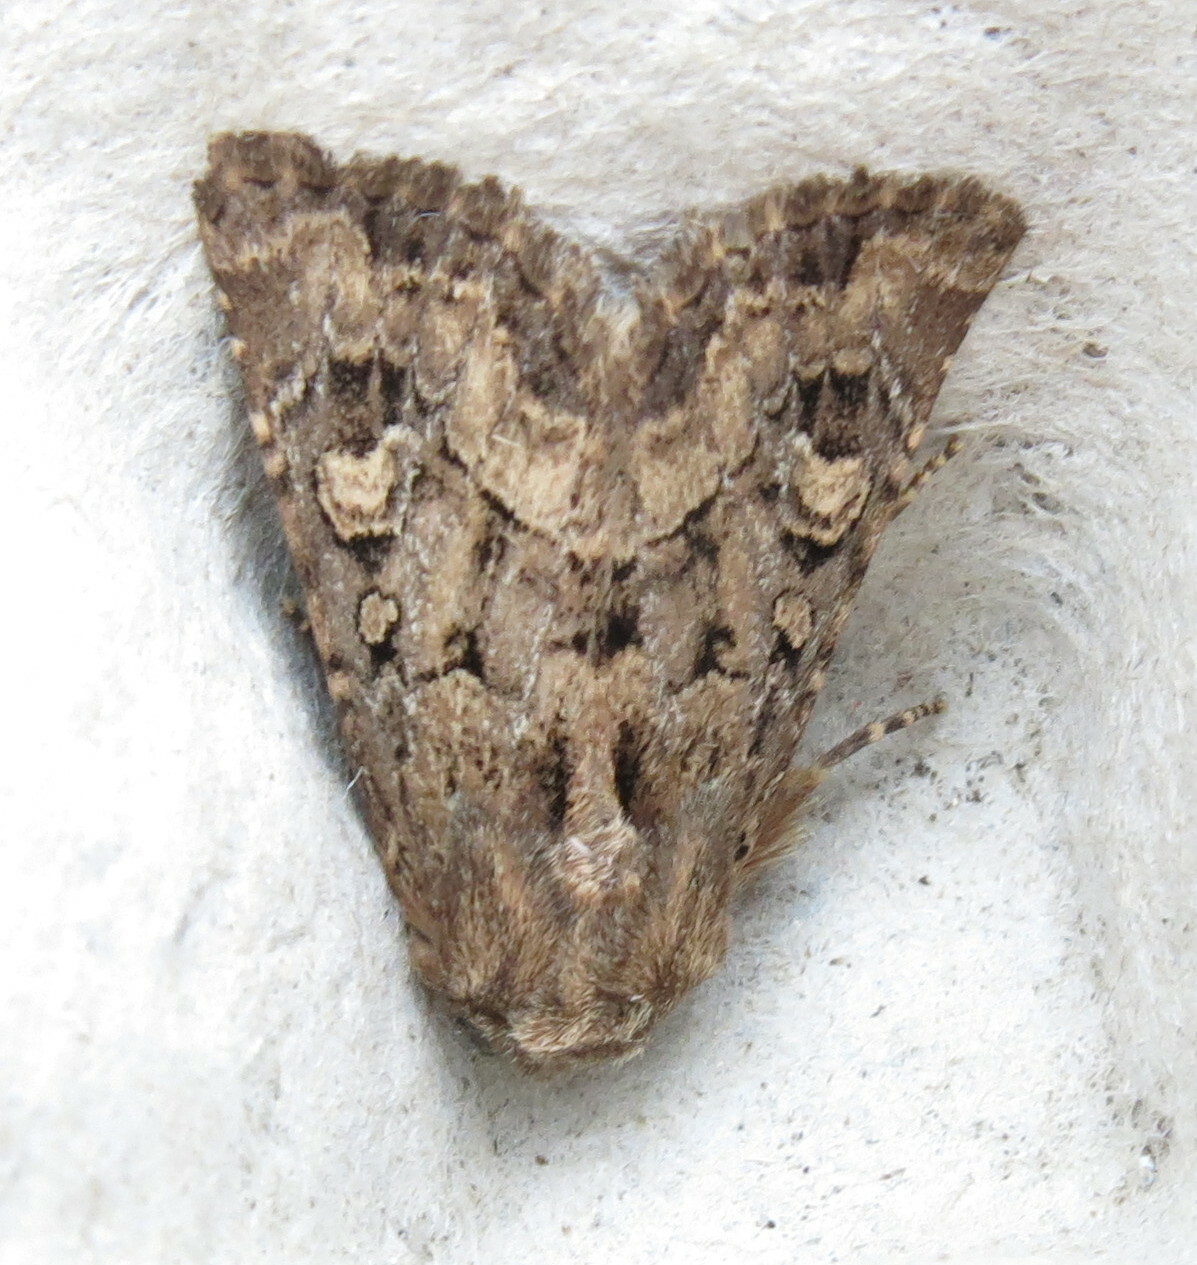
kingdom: Animalia
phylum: Arthropoda
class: Insecta
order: Lepidoptera
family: Noctuidae
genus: Luperina
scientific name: Luperina testacea
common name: Flounced rustic
